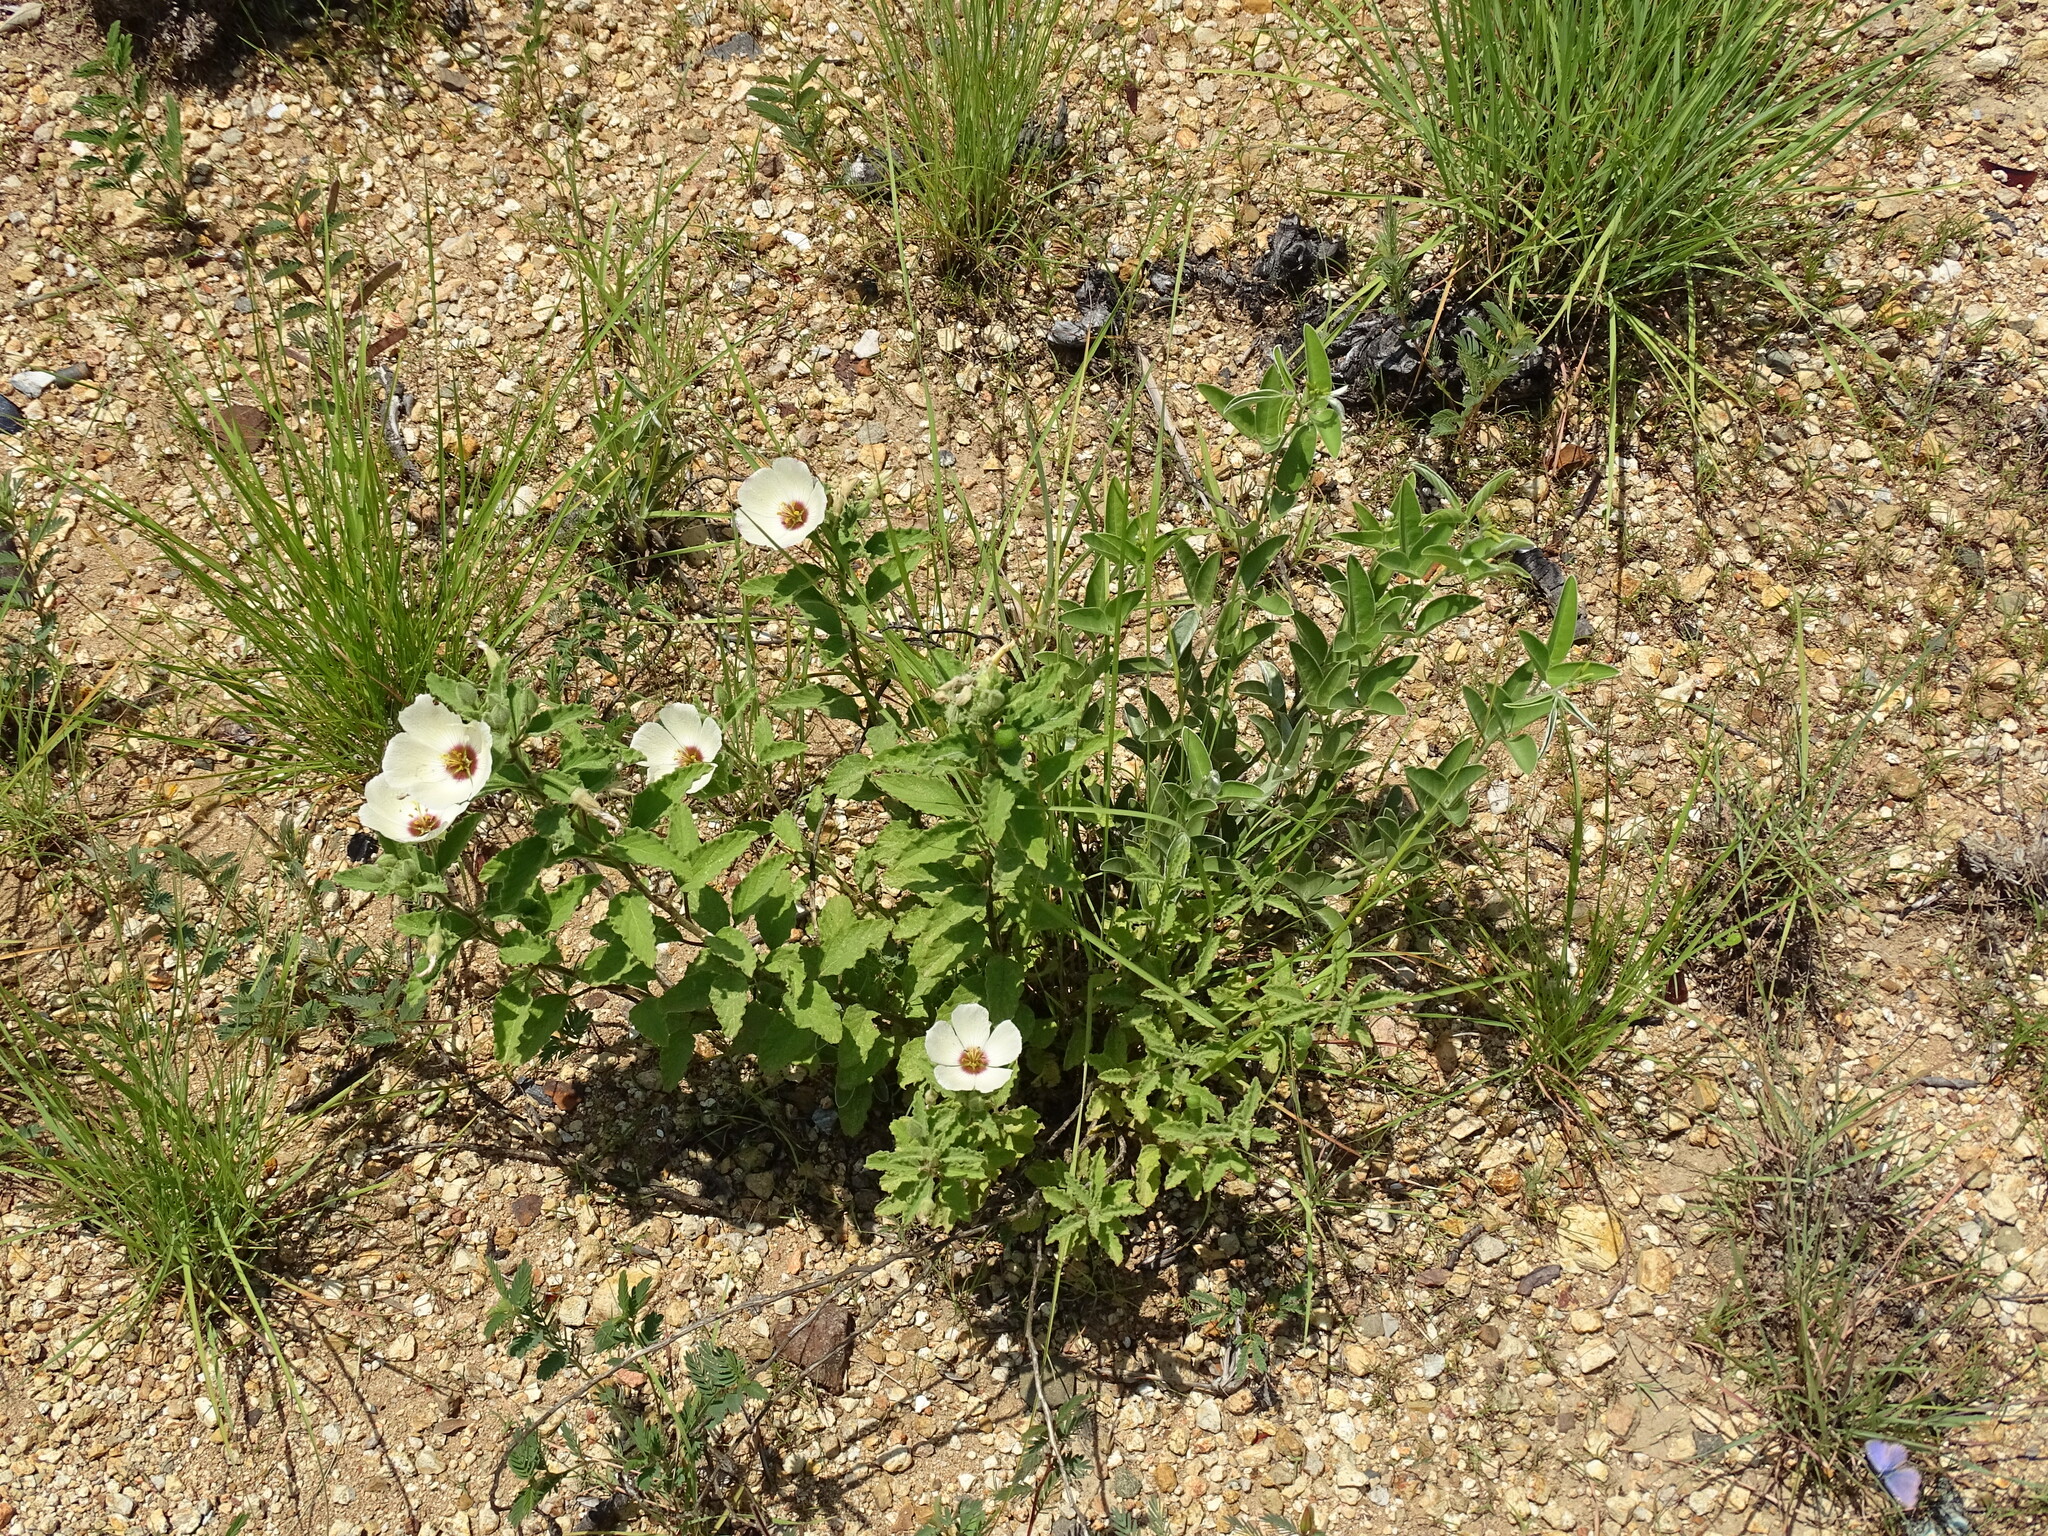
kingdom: Plantae
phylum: Tracheophyta
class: Magnoliopsida
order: Malpighiales
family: Turneraceae
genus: Piriqueta
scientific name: Piriqueta mortonii
